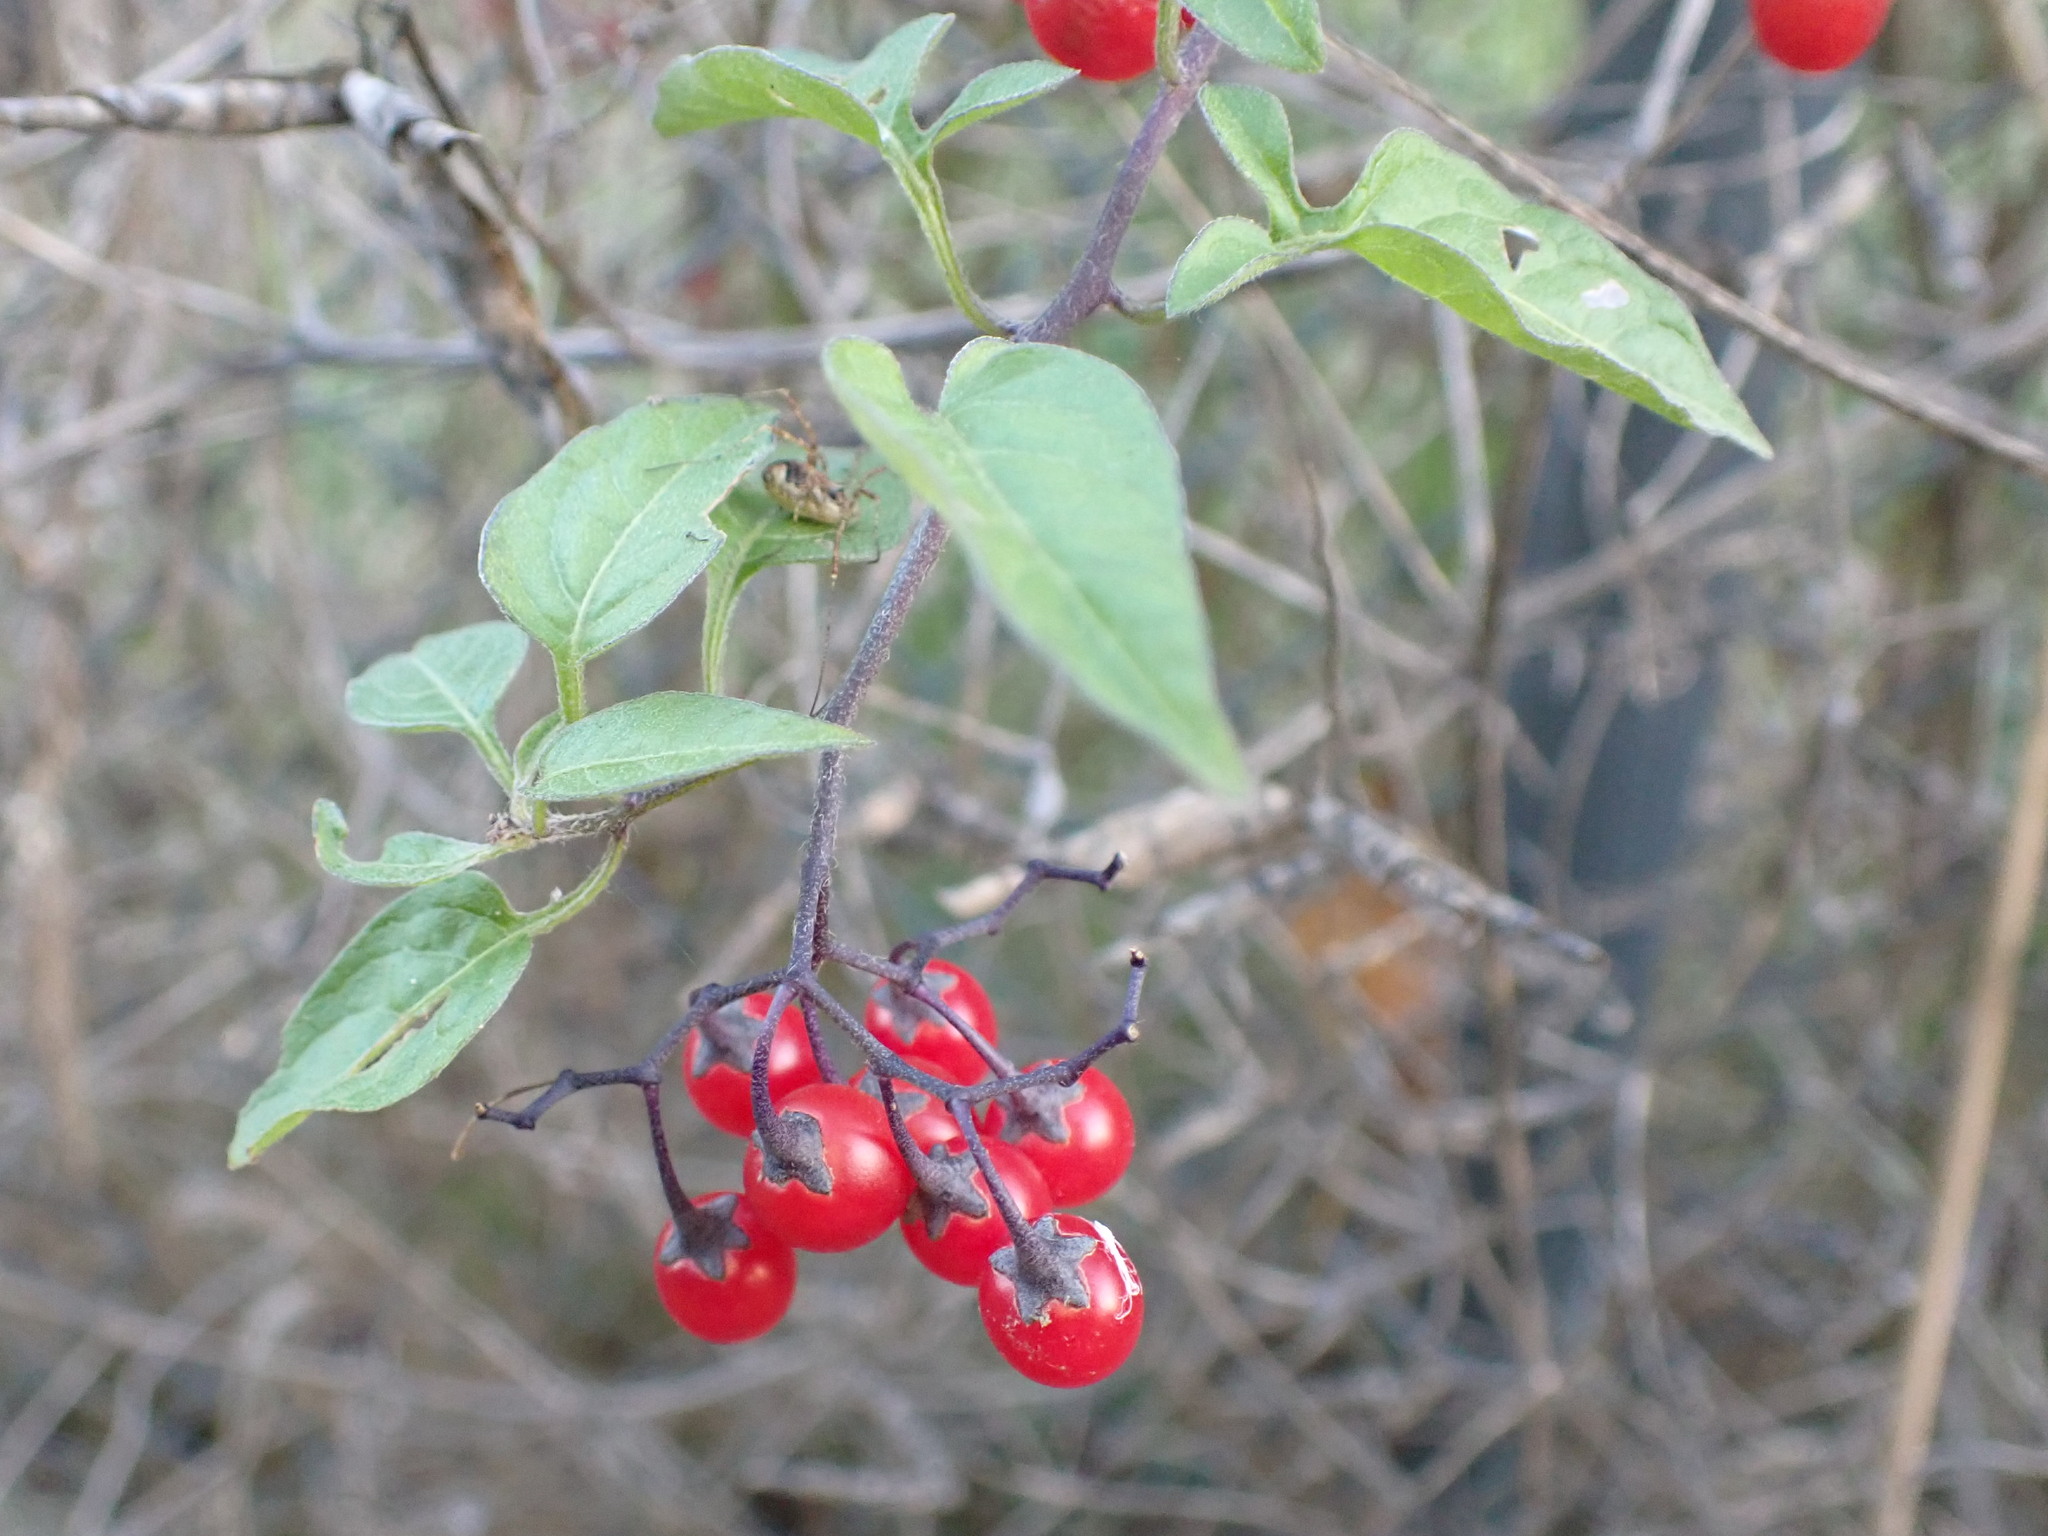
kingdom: Plantae
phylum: Tracheophyta
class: Magnoliopsida
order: Solanales
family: Solanaceae
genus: Solanum
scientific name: Solanum dulcamara
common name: Climbing nightshade
